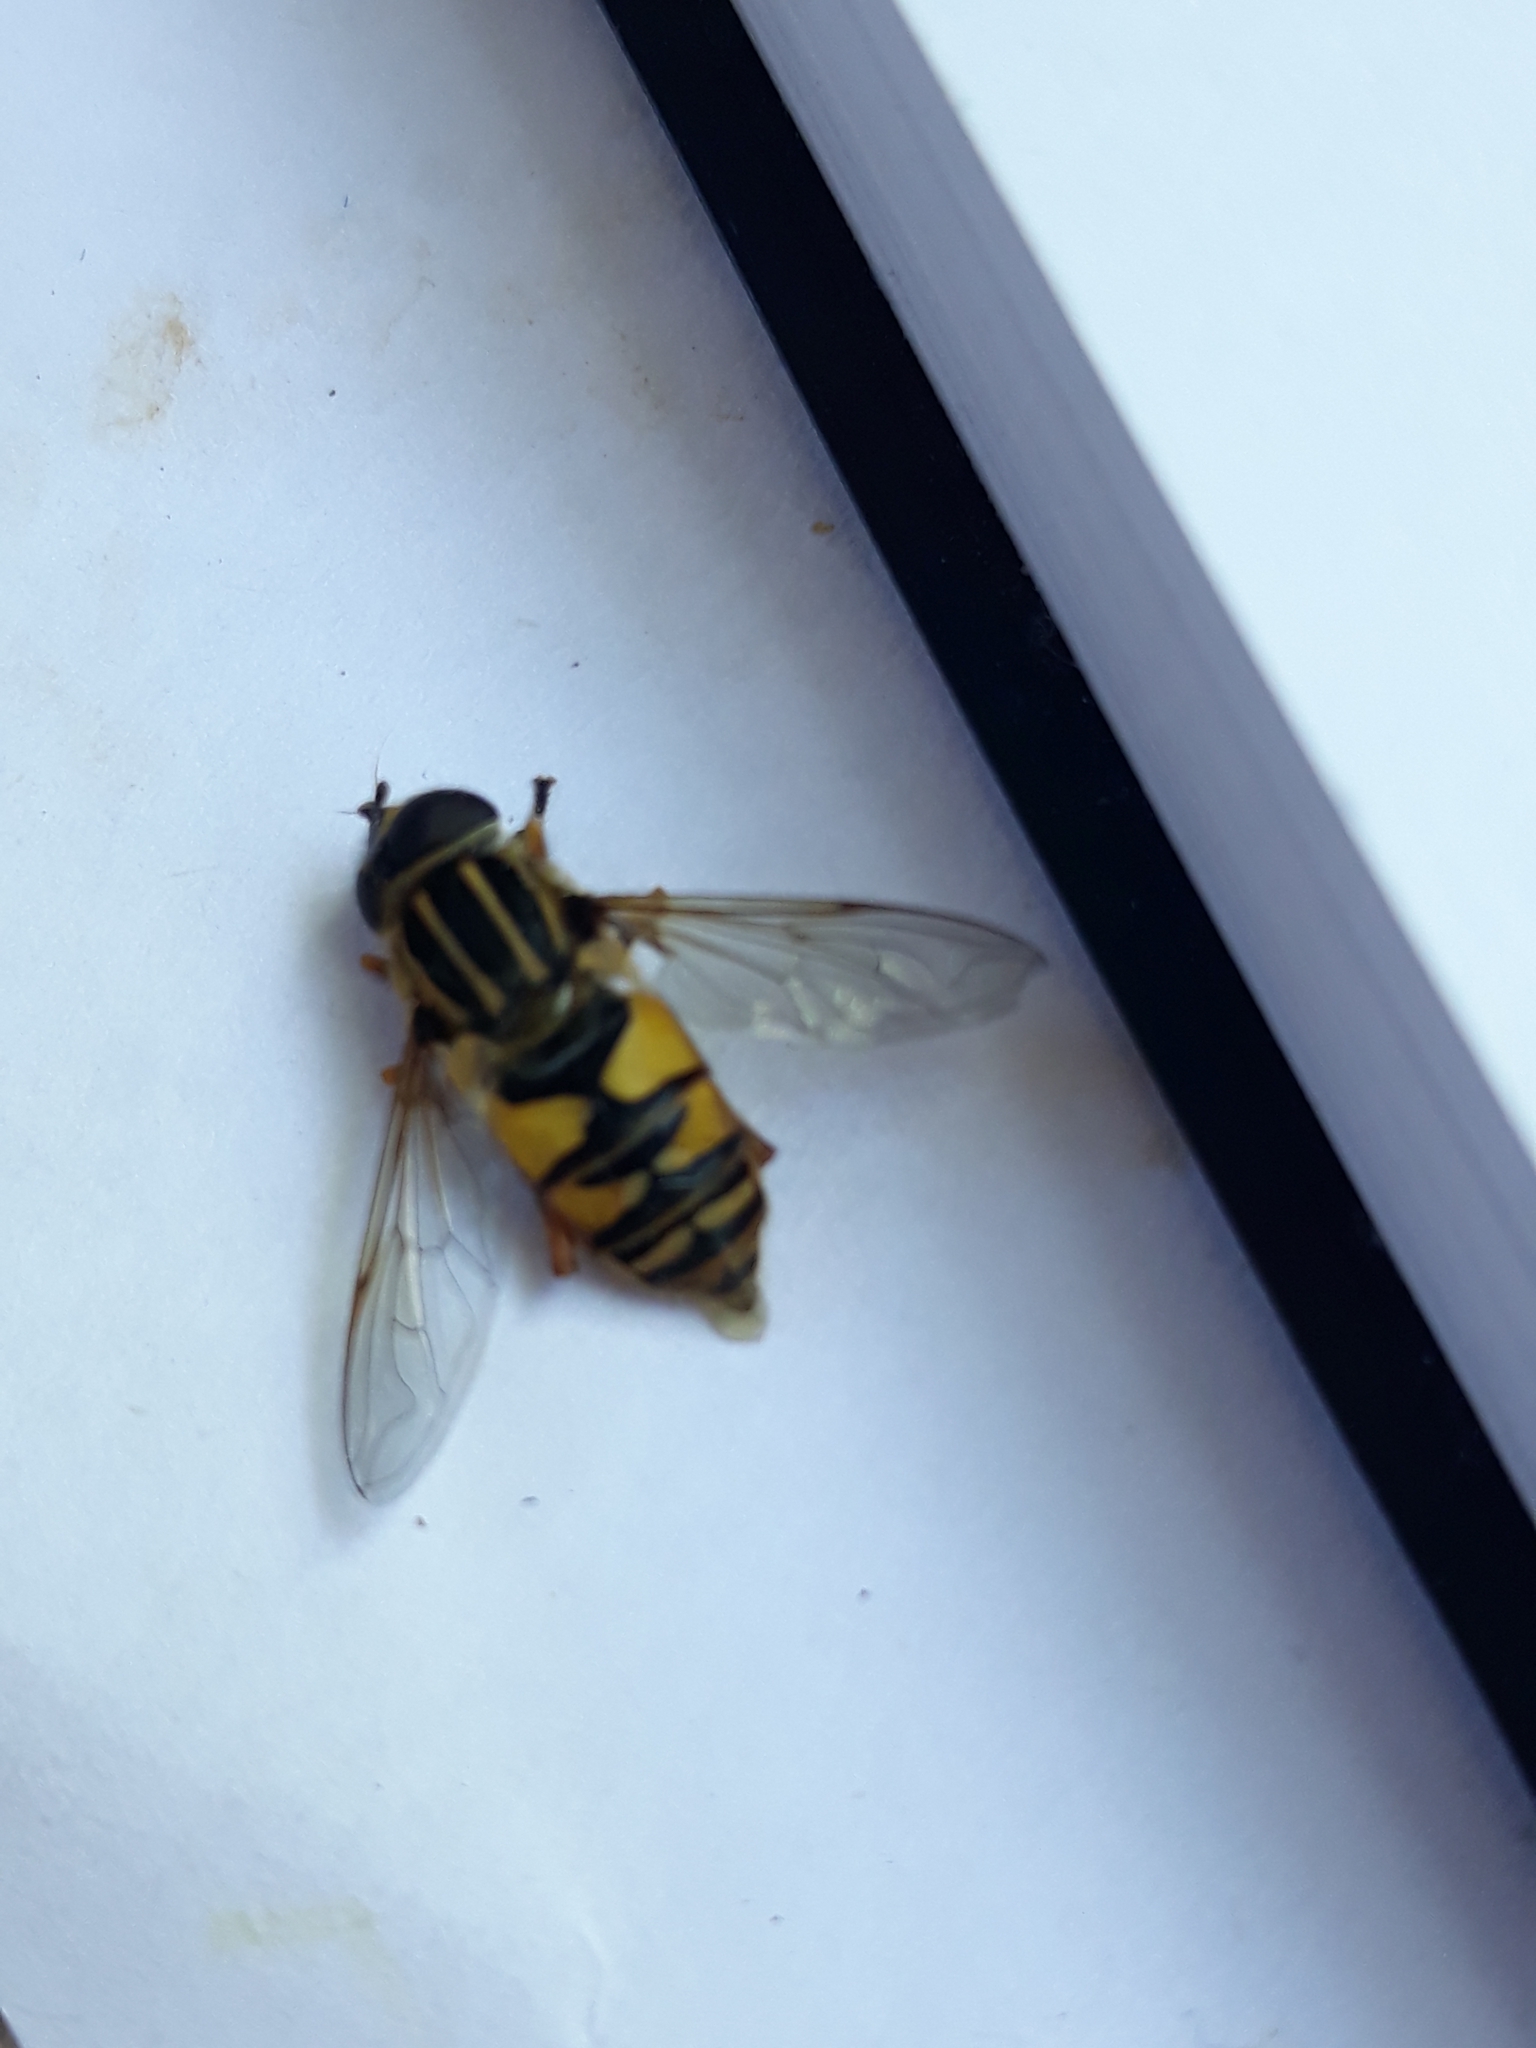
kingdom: Animalia
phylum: Arthropoda
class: Insecta
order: Diptera
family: Syrphidae
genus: Helophilus
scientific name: Helophilus pendulus
